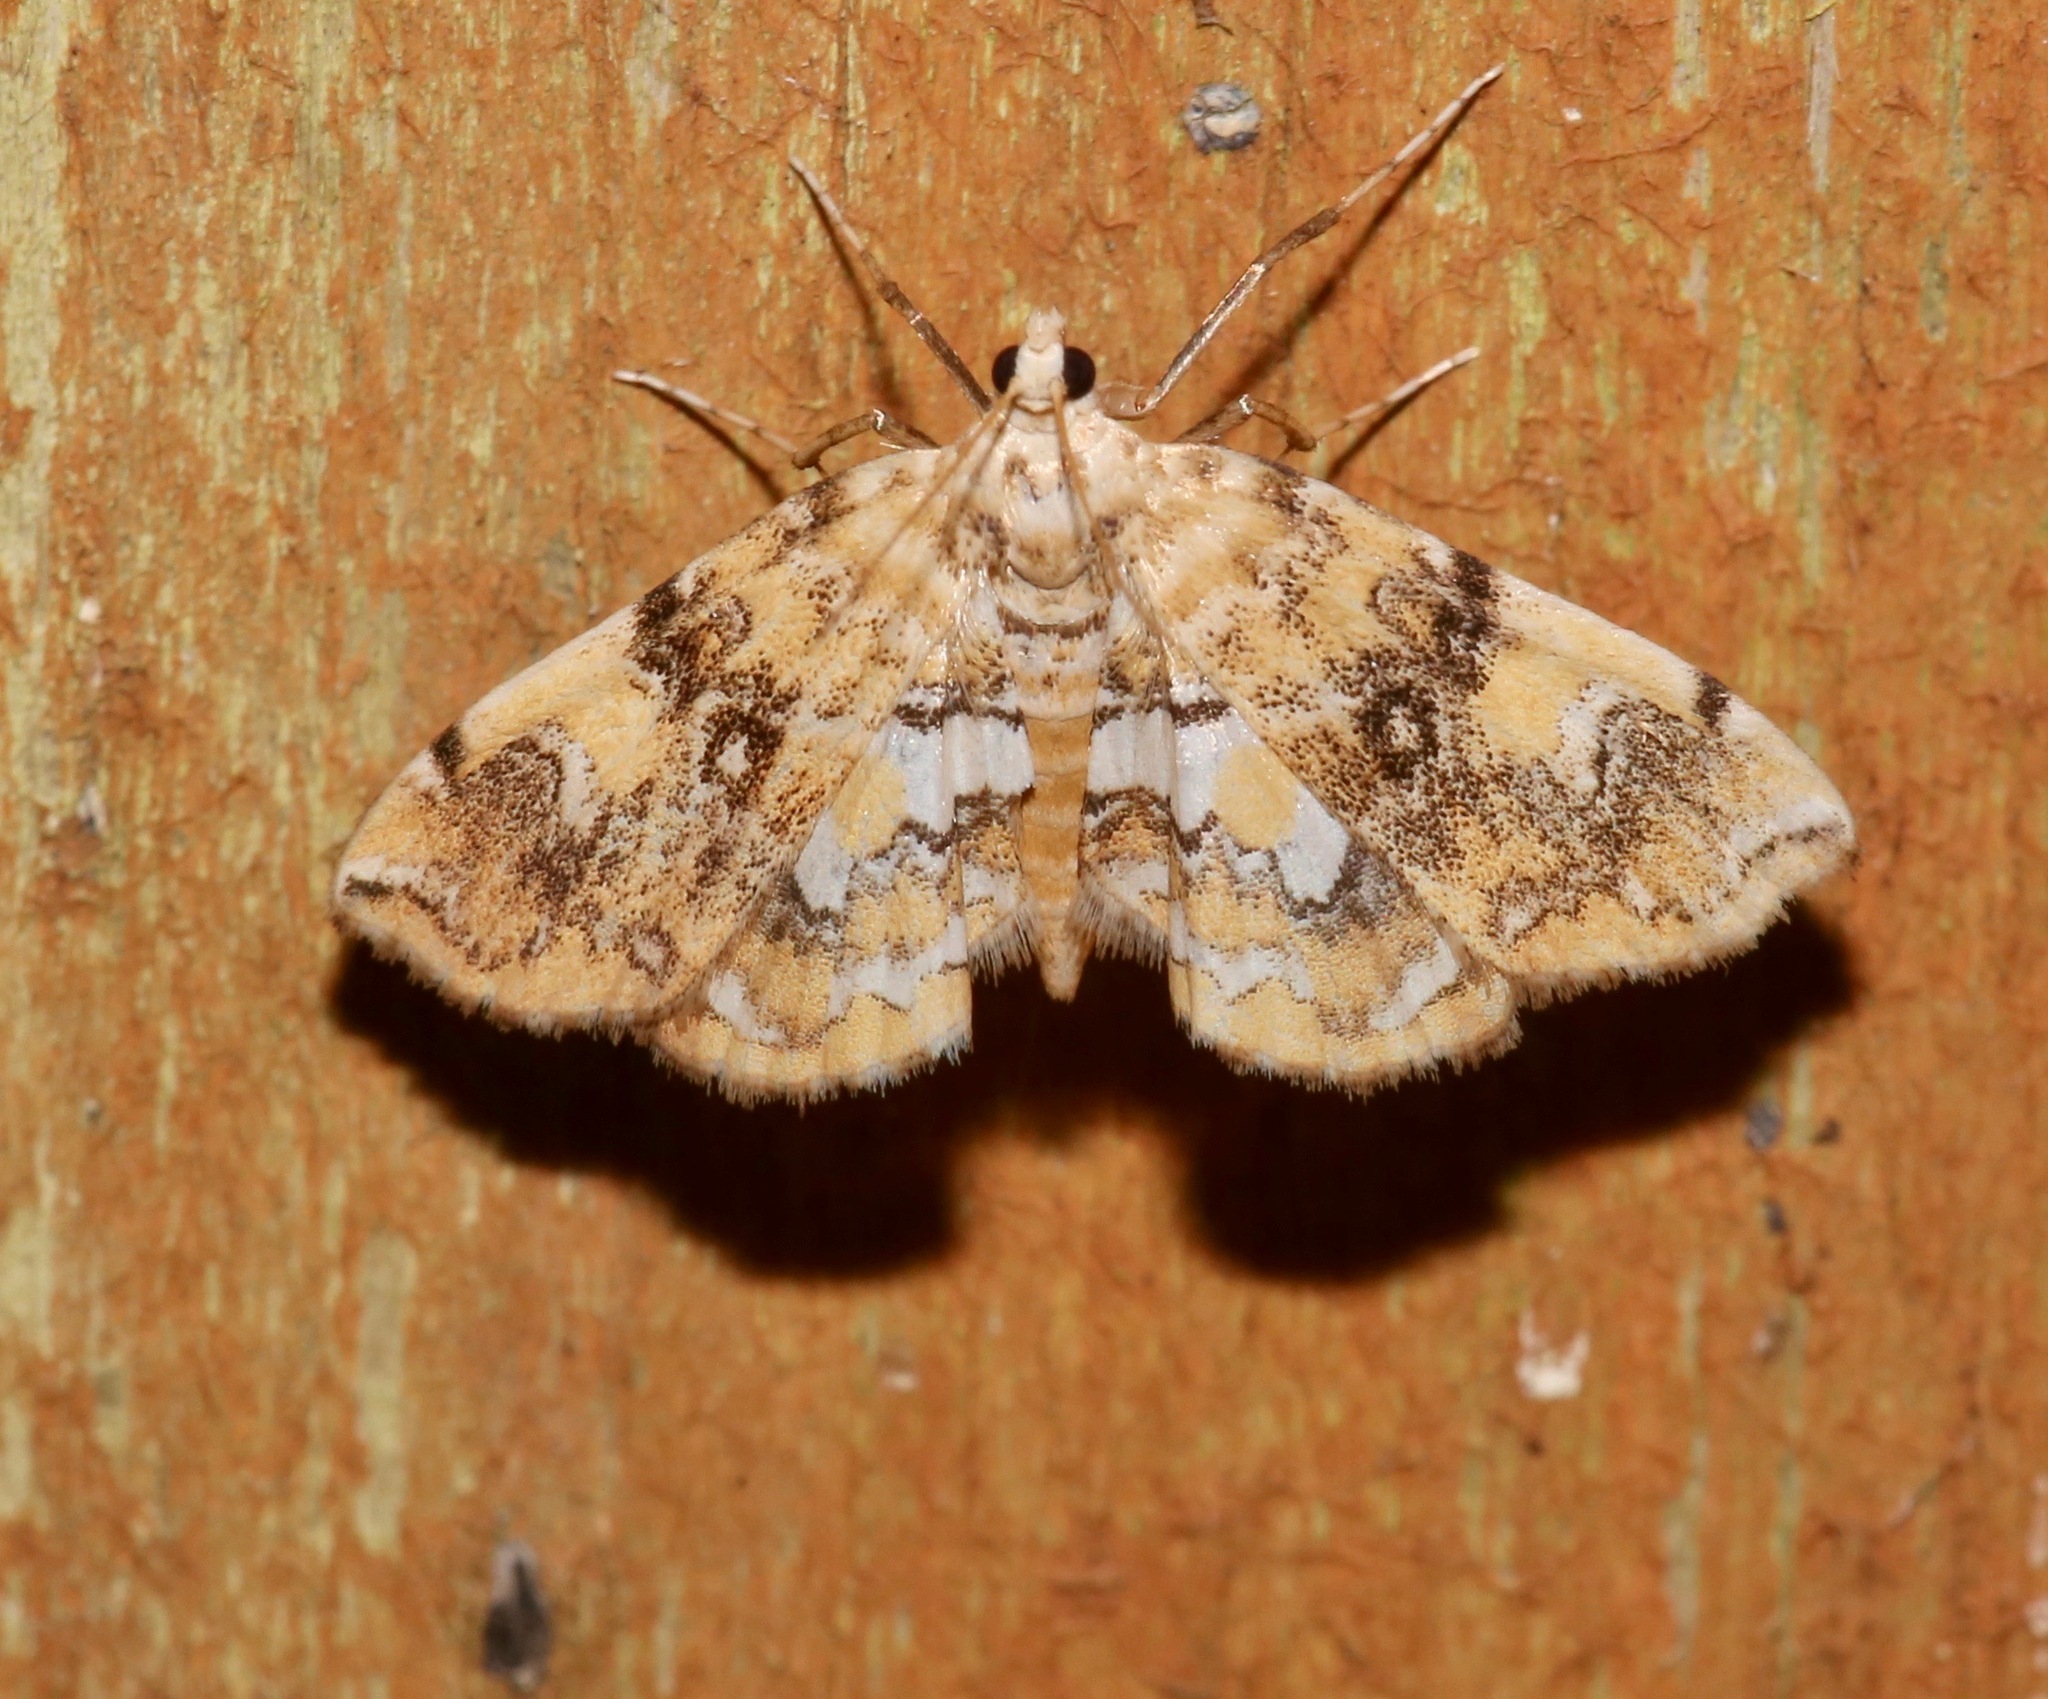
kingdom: Animalia
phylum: Arthropoda
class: Insecta
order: Lepidoptera
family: Crambidae
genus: Elophila
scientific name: Elophila faulalis
